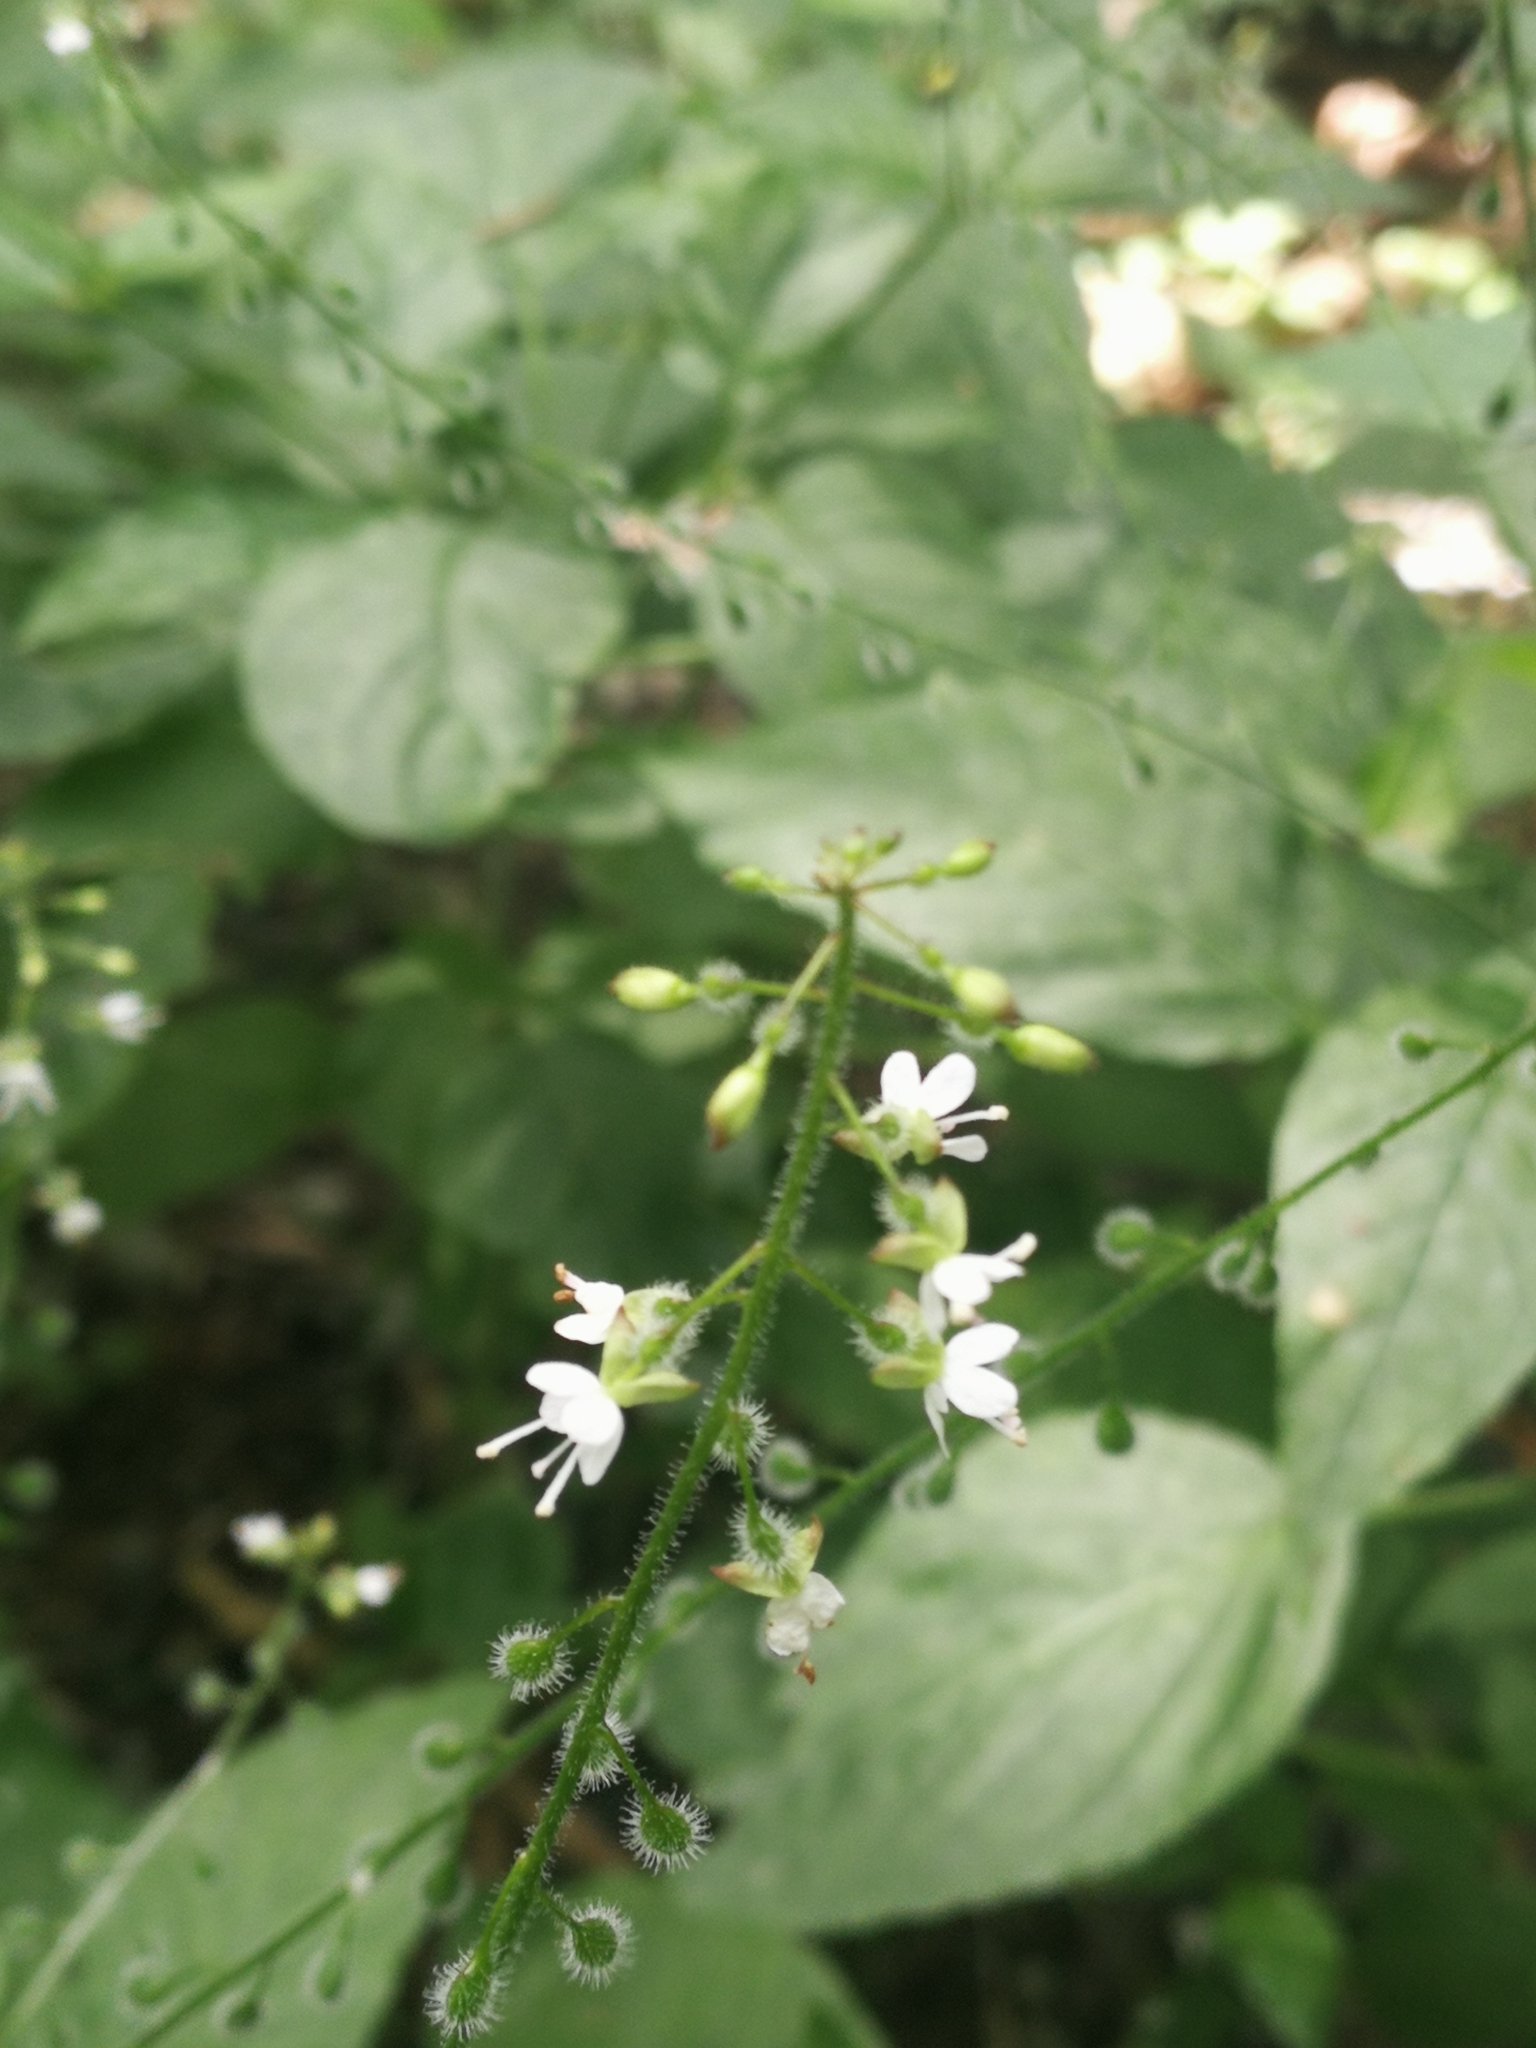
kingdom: Plantae
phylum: Tracheophyta
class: Magnoliopsida
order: Myrtales
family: Onagraceae
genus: Circaea
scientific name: Circaea lutetiana
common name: Enchanter's-nightshade
